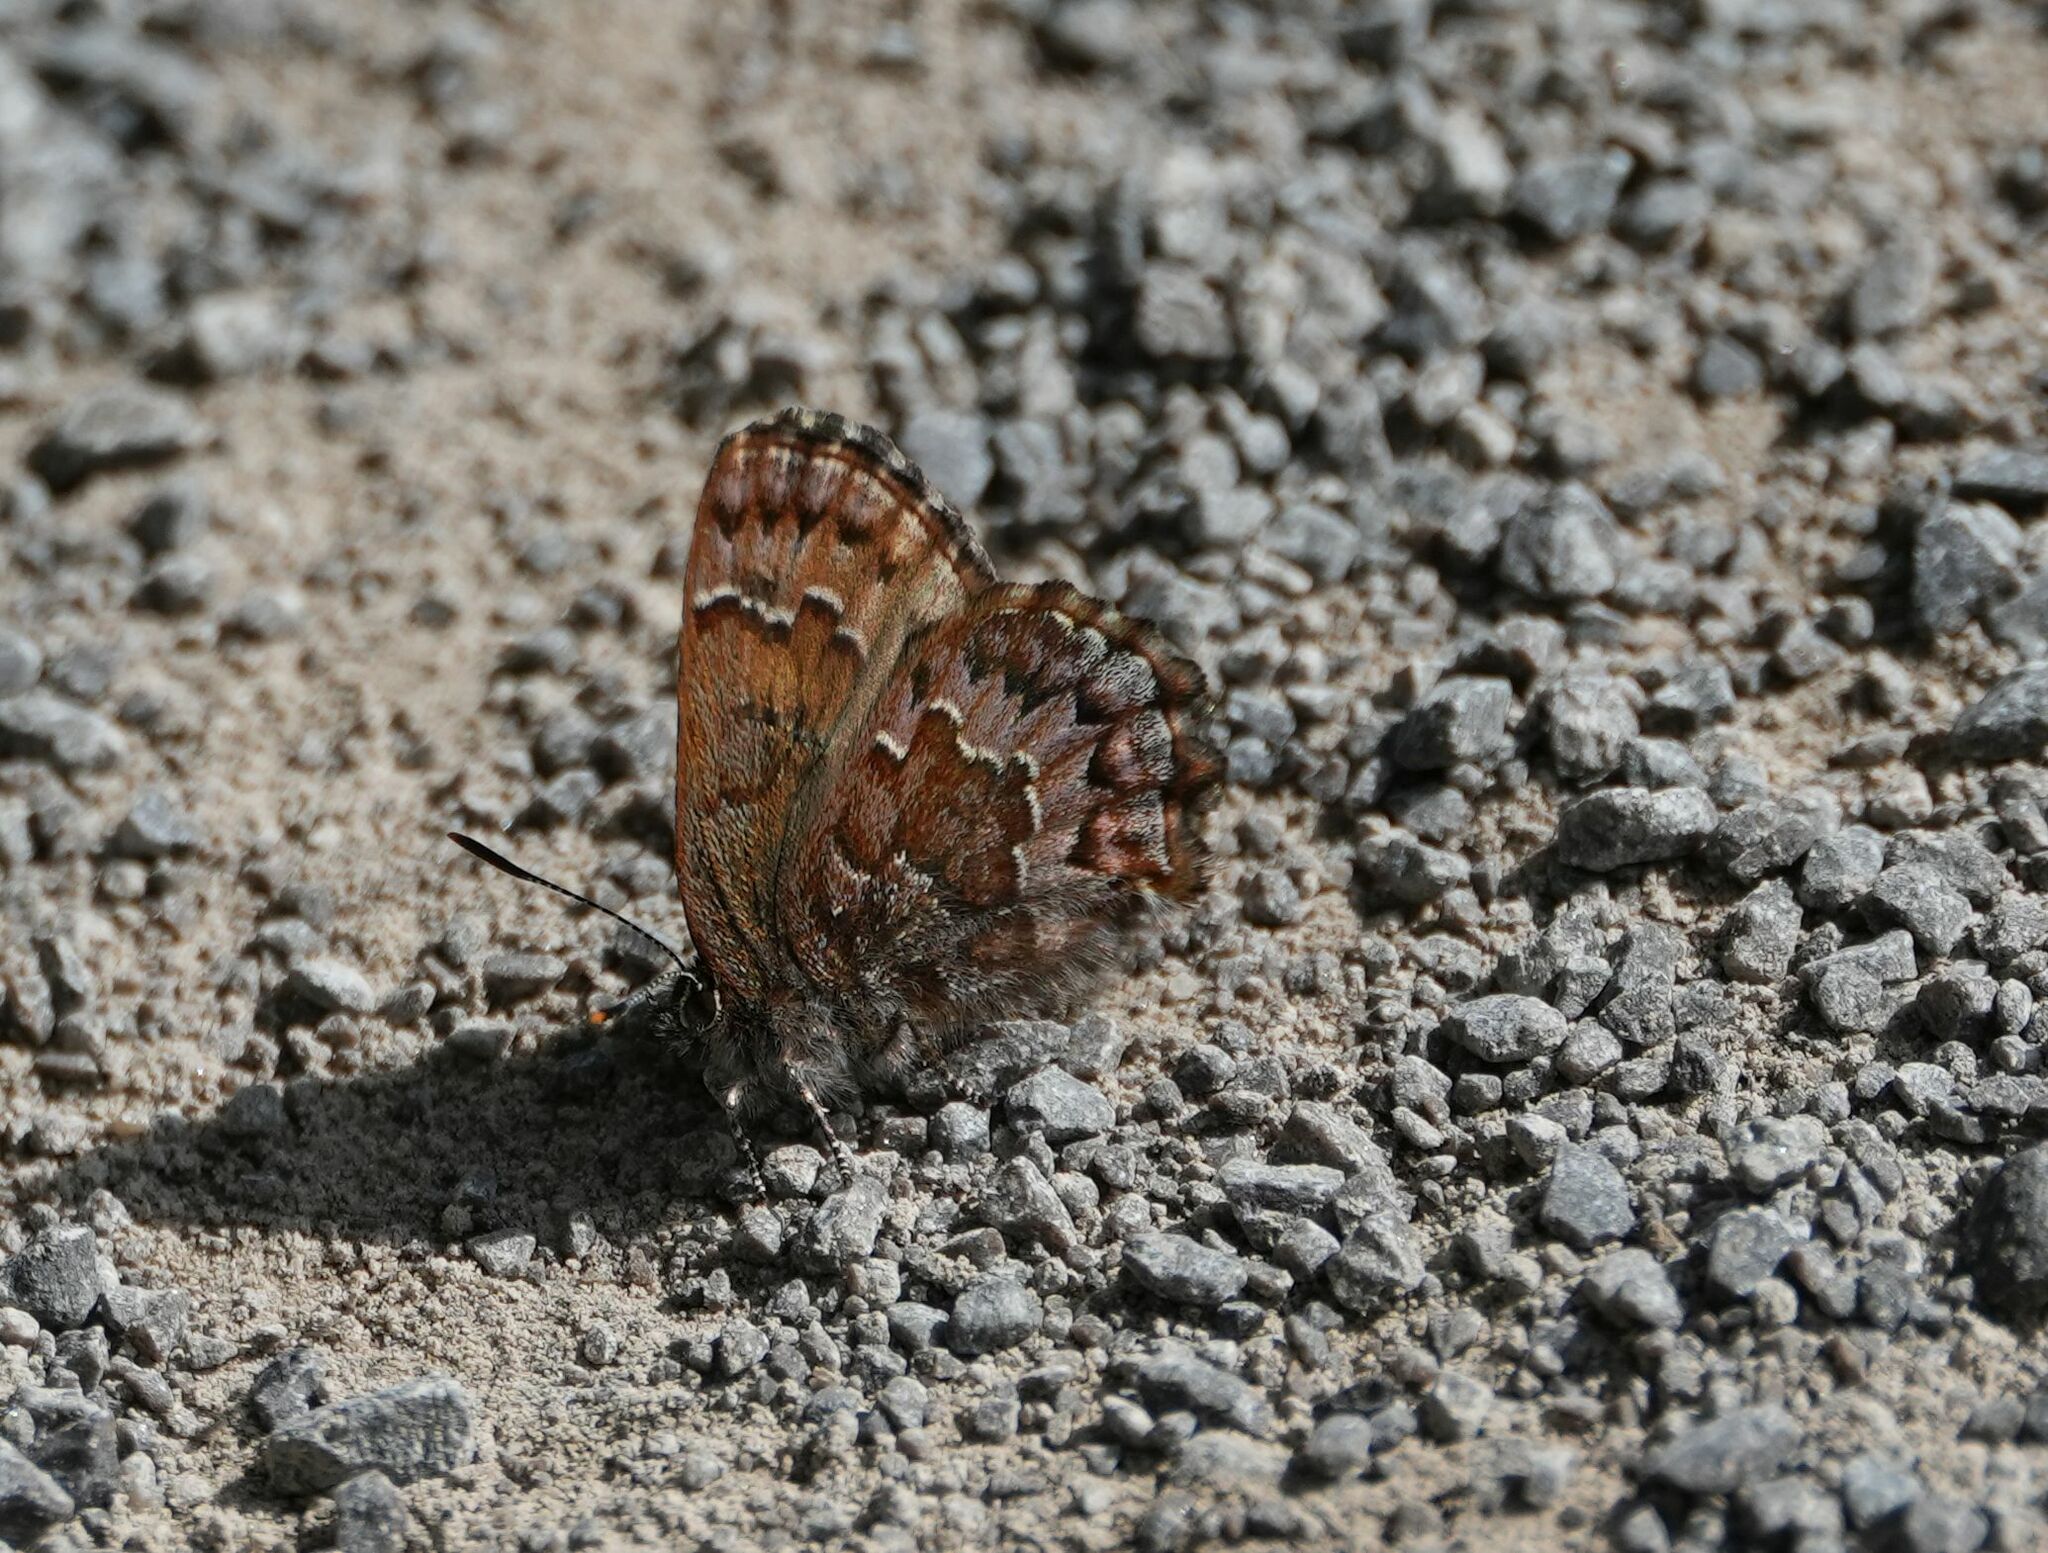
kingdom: Animalia
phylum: Arthropoda
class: Insecta
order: Lepidoptera
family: Lycaenidae
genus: Incisalia
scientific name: Incisalia niphon
